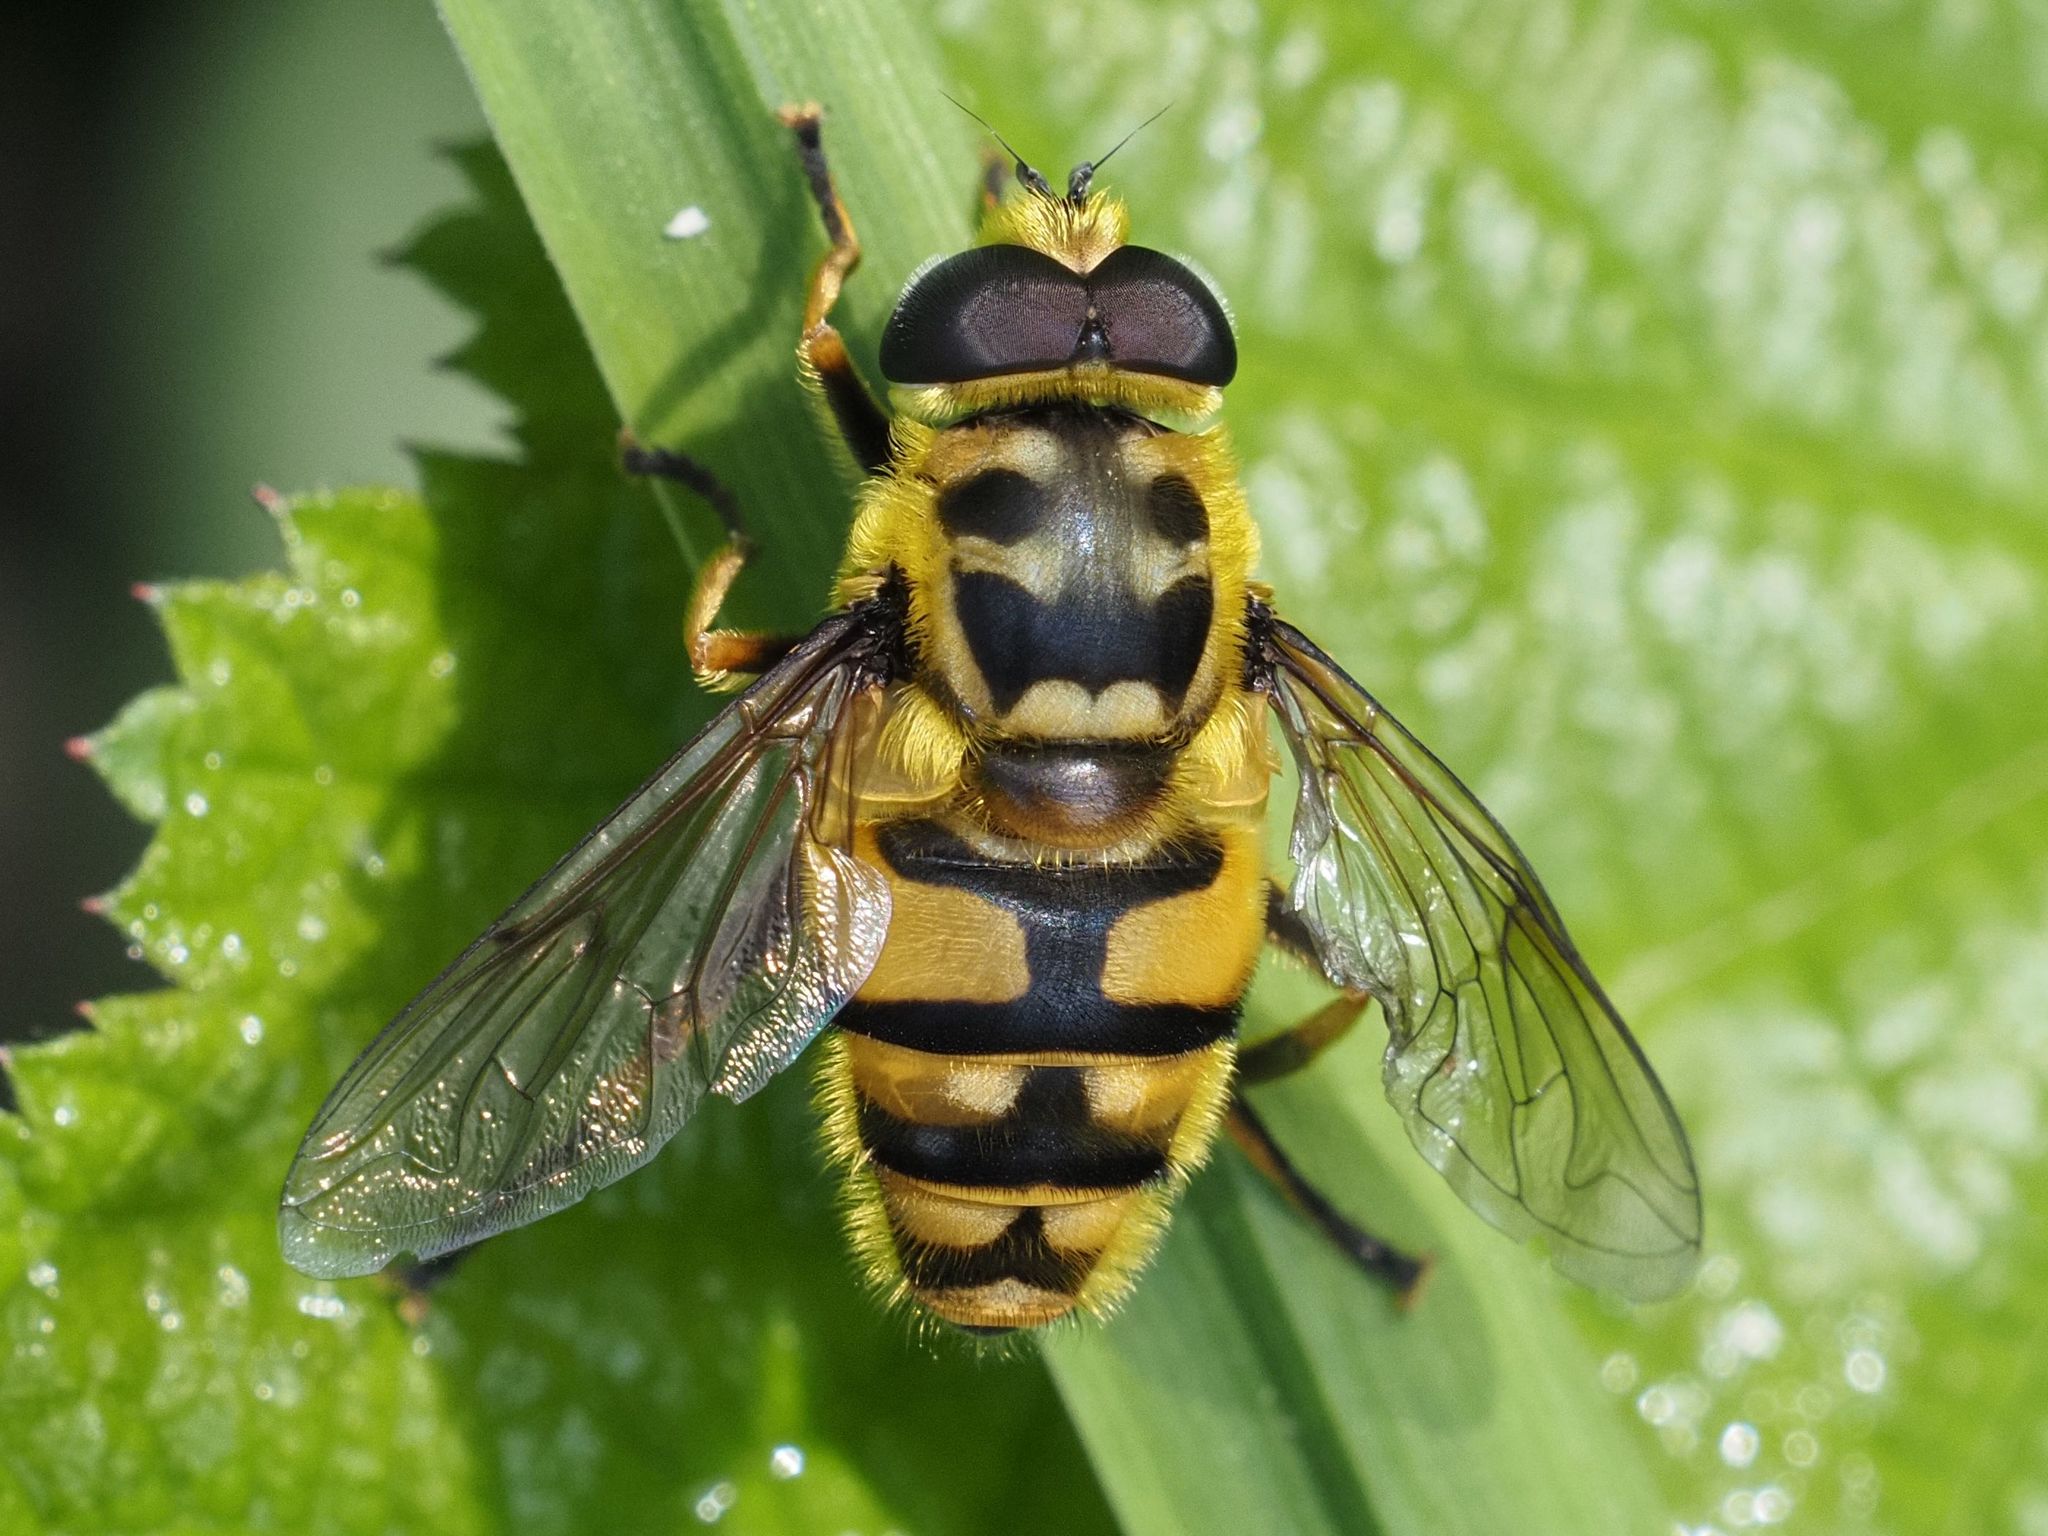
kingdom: Animalia
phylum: Arthropoda
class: Insecta
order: Diptera
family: Syrphidae
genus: Myathropa
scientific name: Myathropa florea
